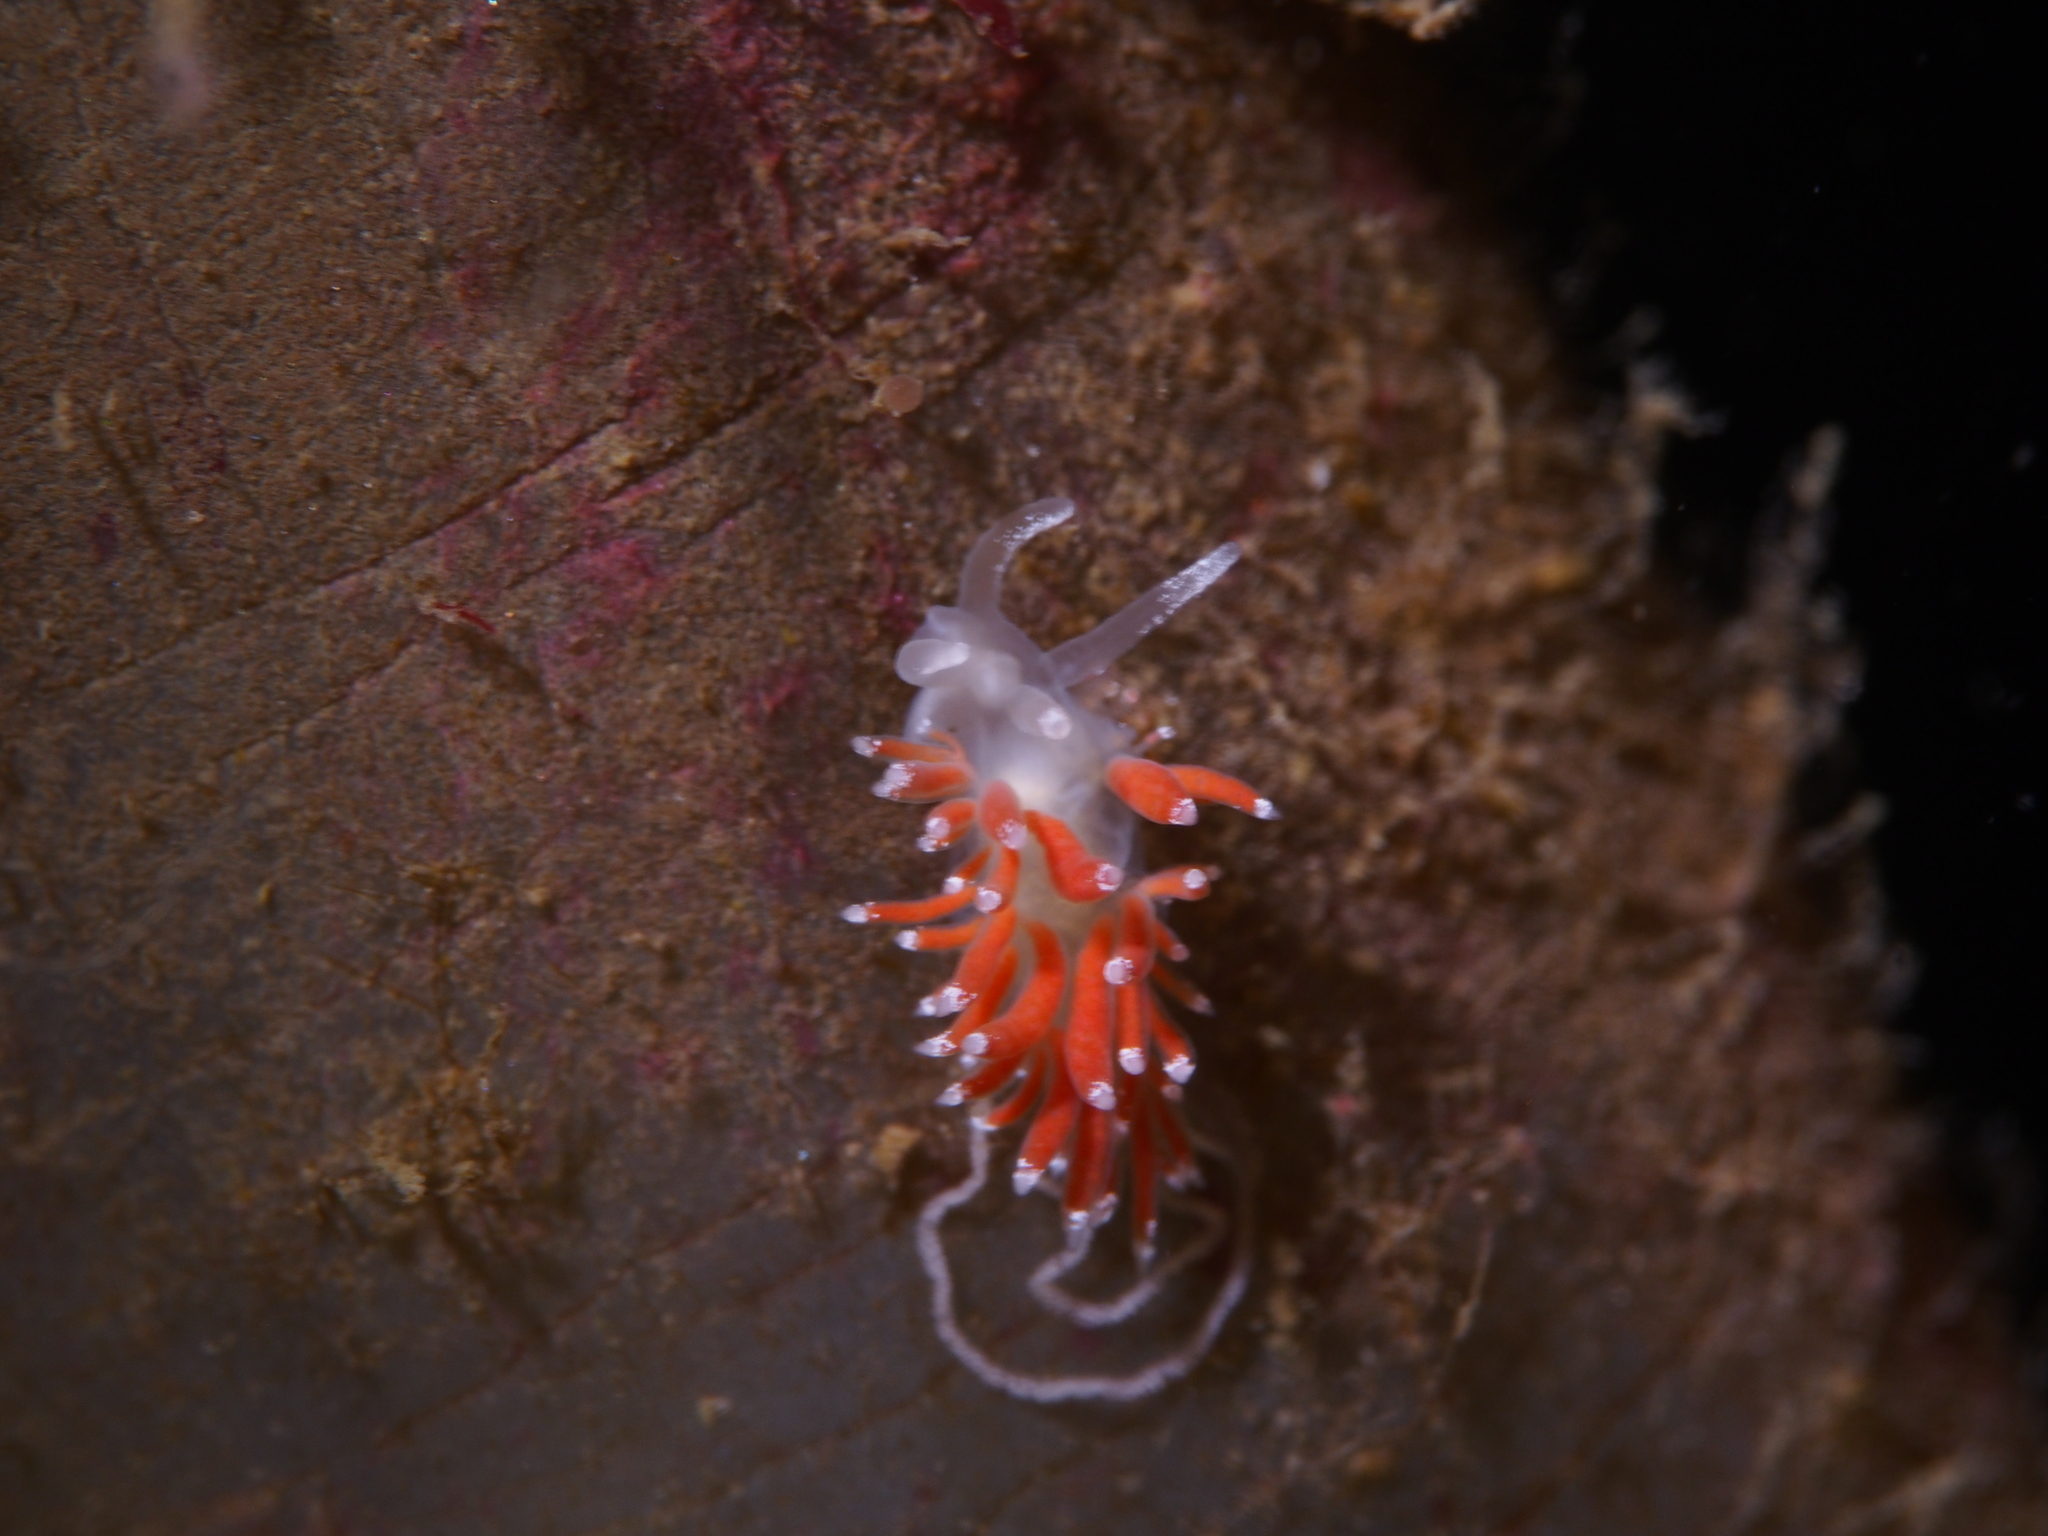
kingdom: Animalia
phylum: Mollusca
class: Gastropoda
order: Nudibranchia
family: Coryphellidae
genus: Coryphella
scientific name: Coryphella gracilis
